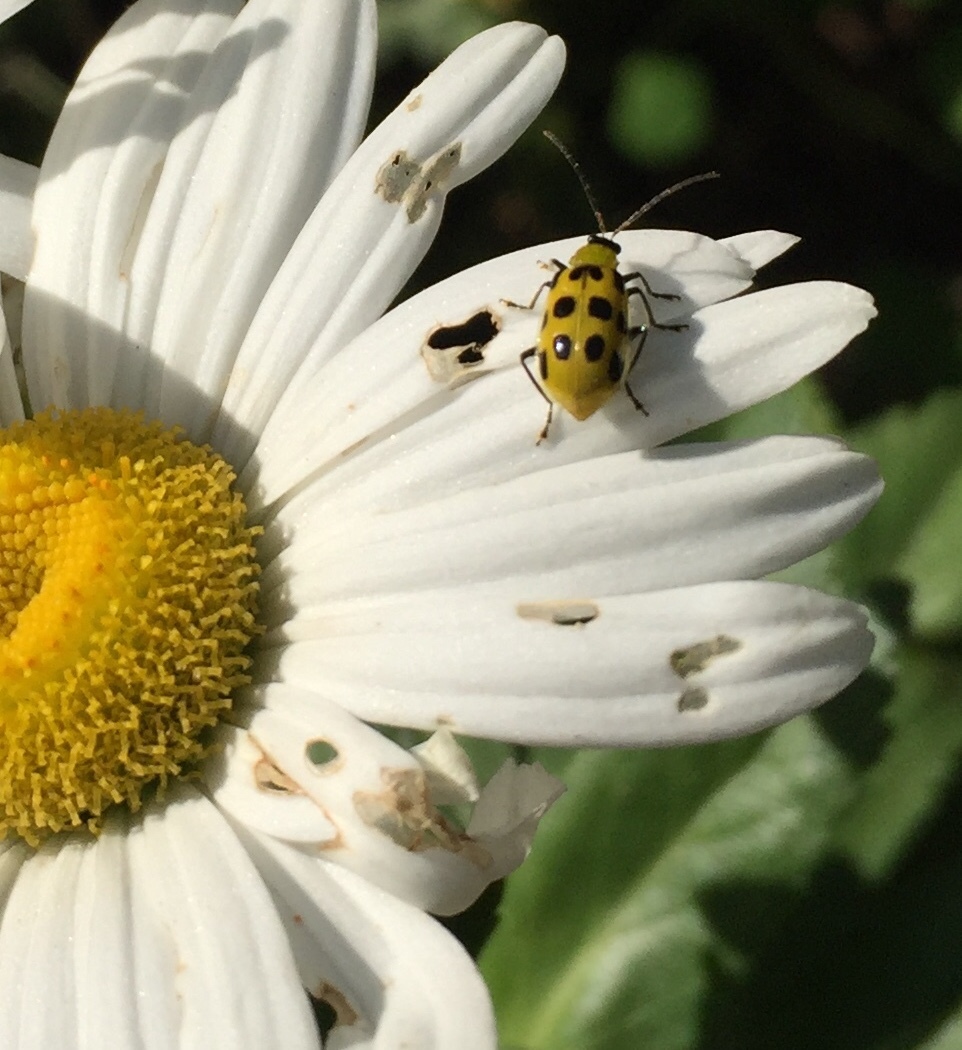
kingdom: Animalia
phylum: Arthropoda
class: Insecta
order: Coleoptera
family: Chrysomelidae
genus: Diabrotica
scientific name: Diabrotica undecimpunctata
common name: Spotted cucumber beetle
